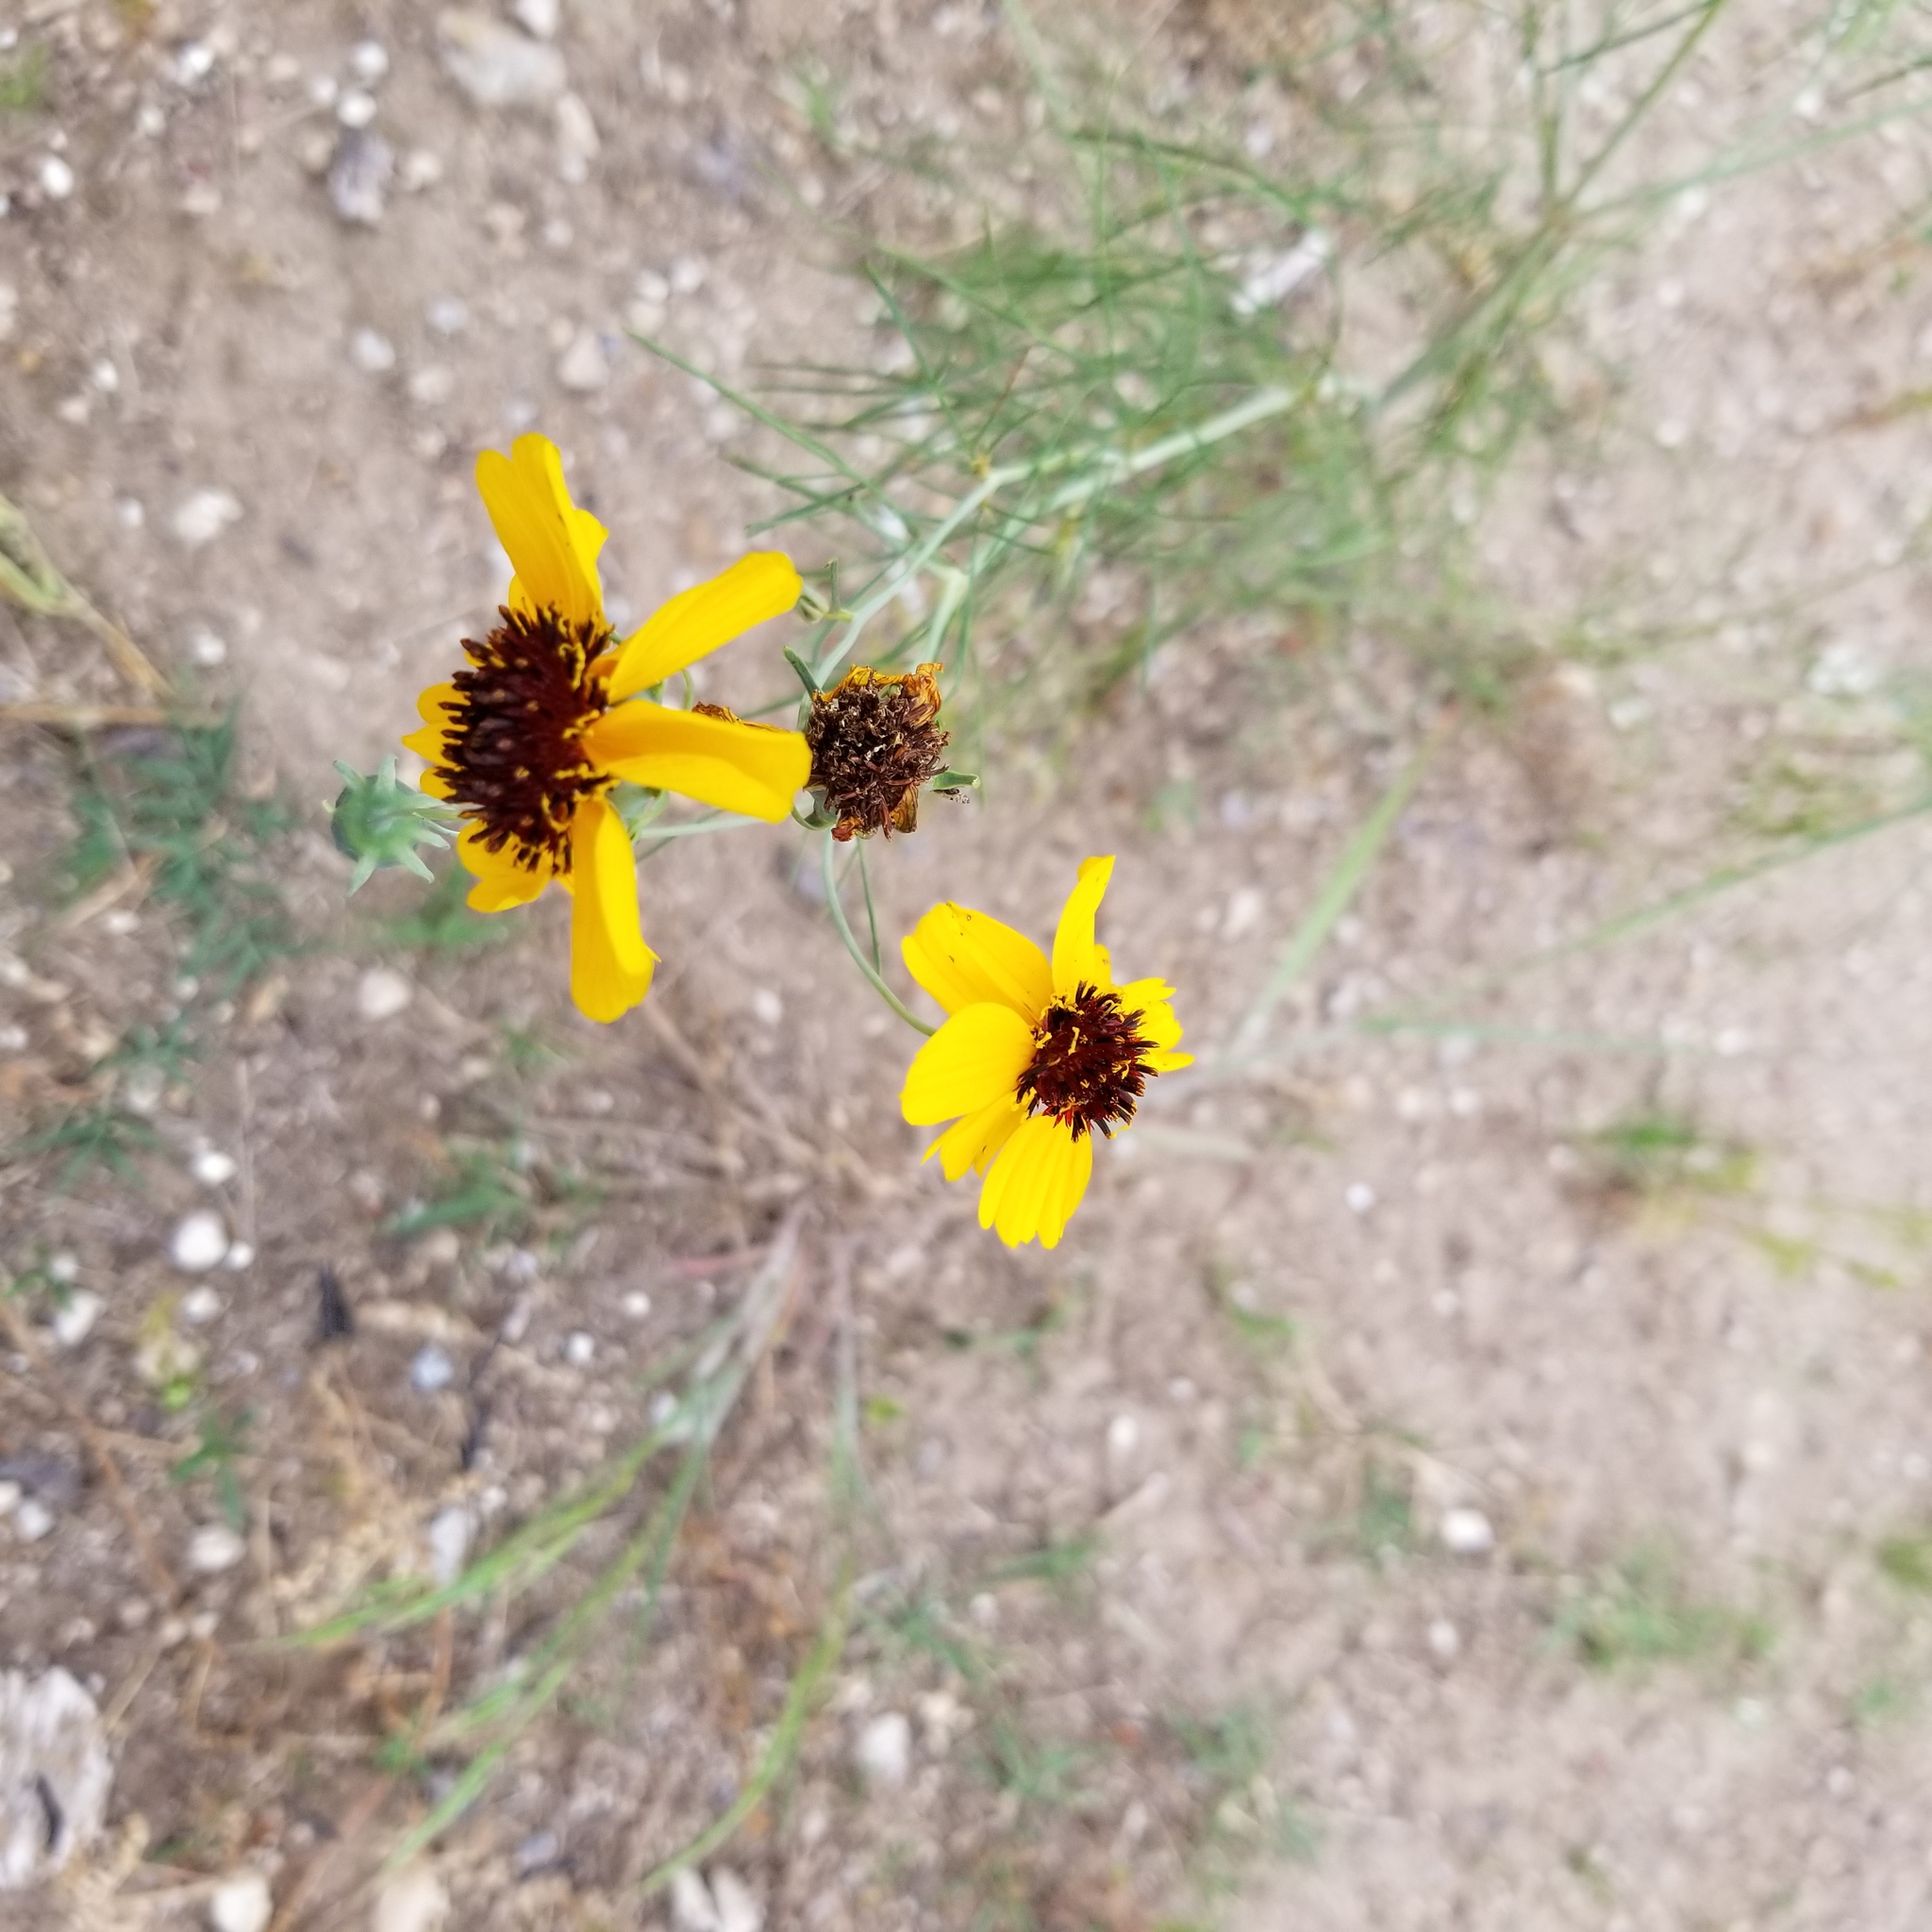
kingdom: Plantae
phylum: Tracheophyta
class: Magnoliopsida
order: Asterales
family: Asteraceae
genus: Thelesperma
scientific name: Thelesperma filifolium
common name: Stiff greenthread
